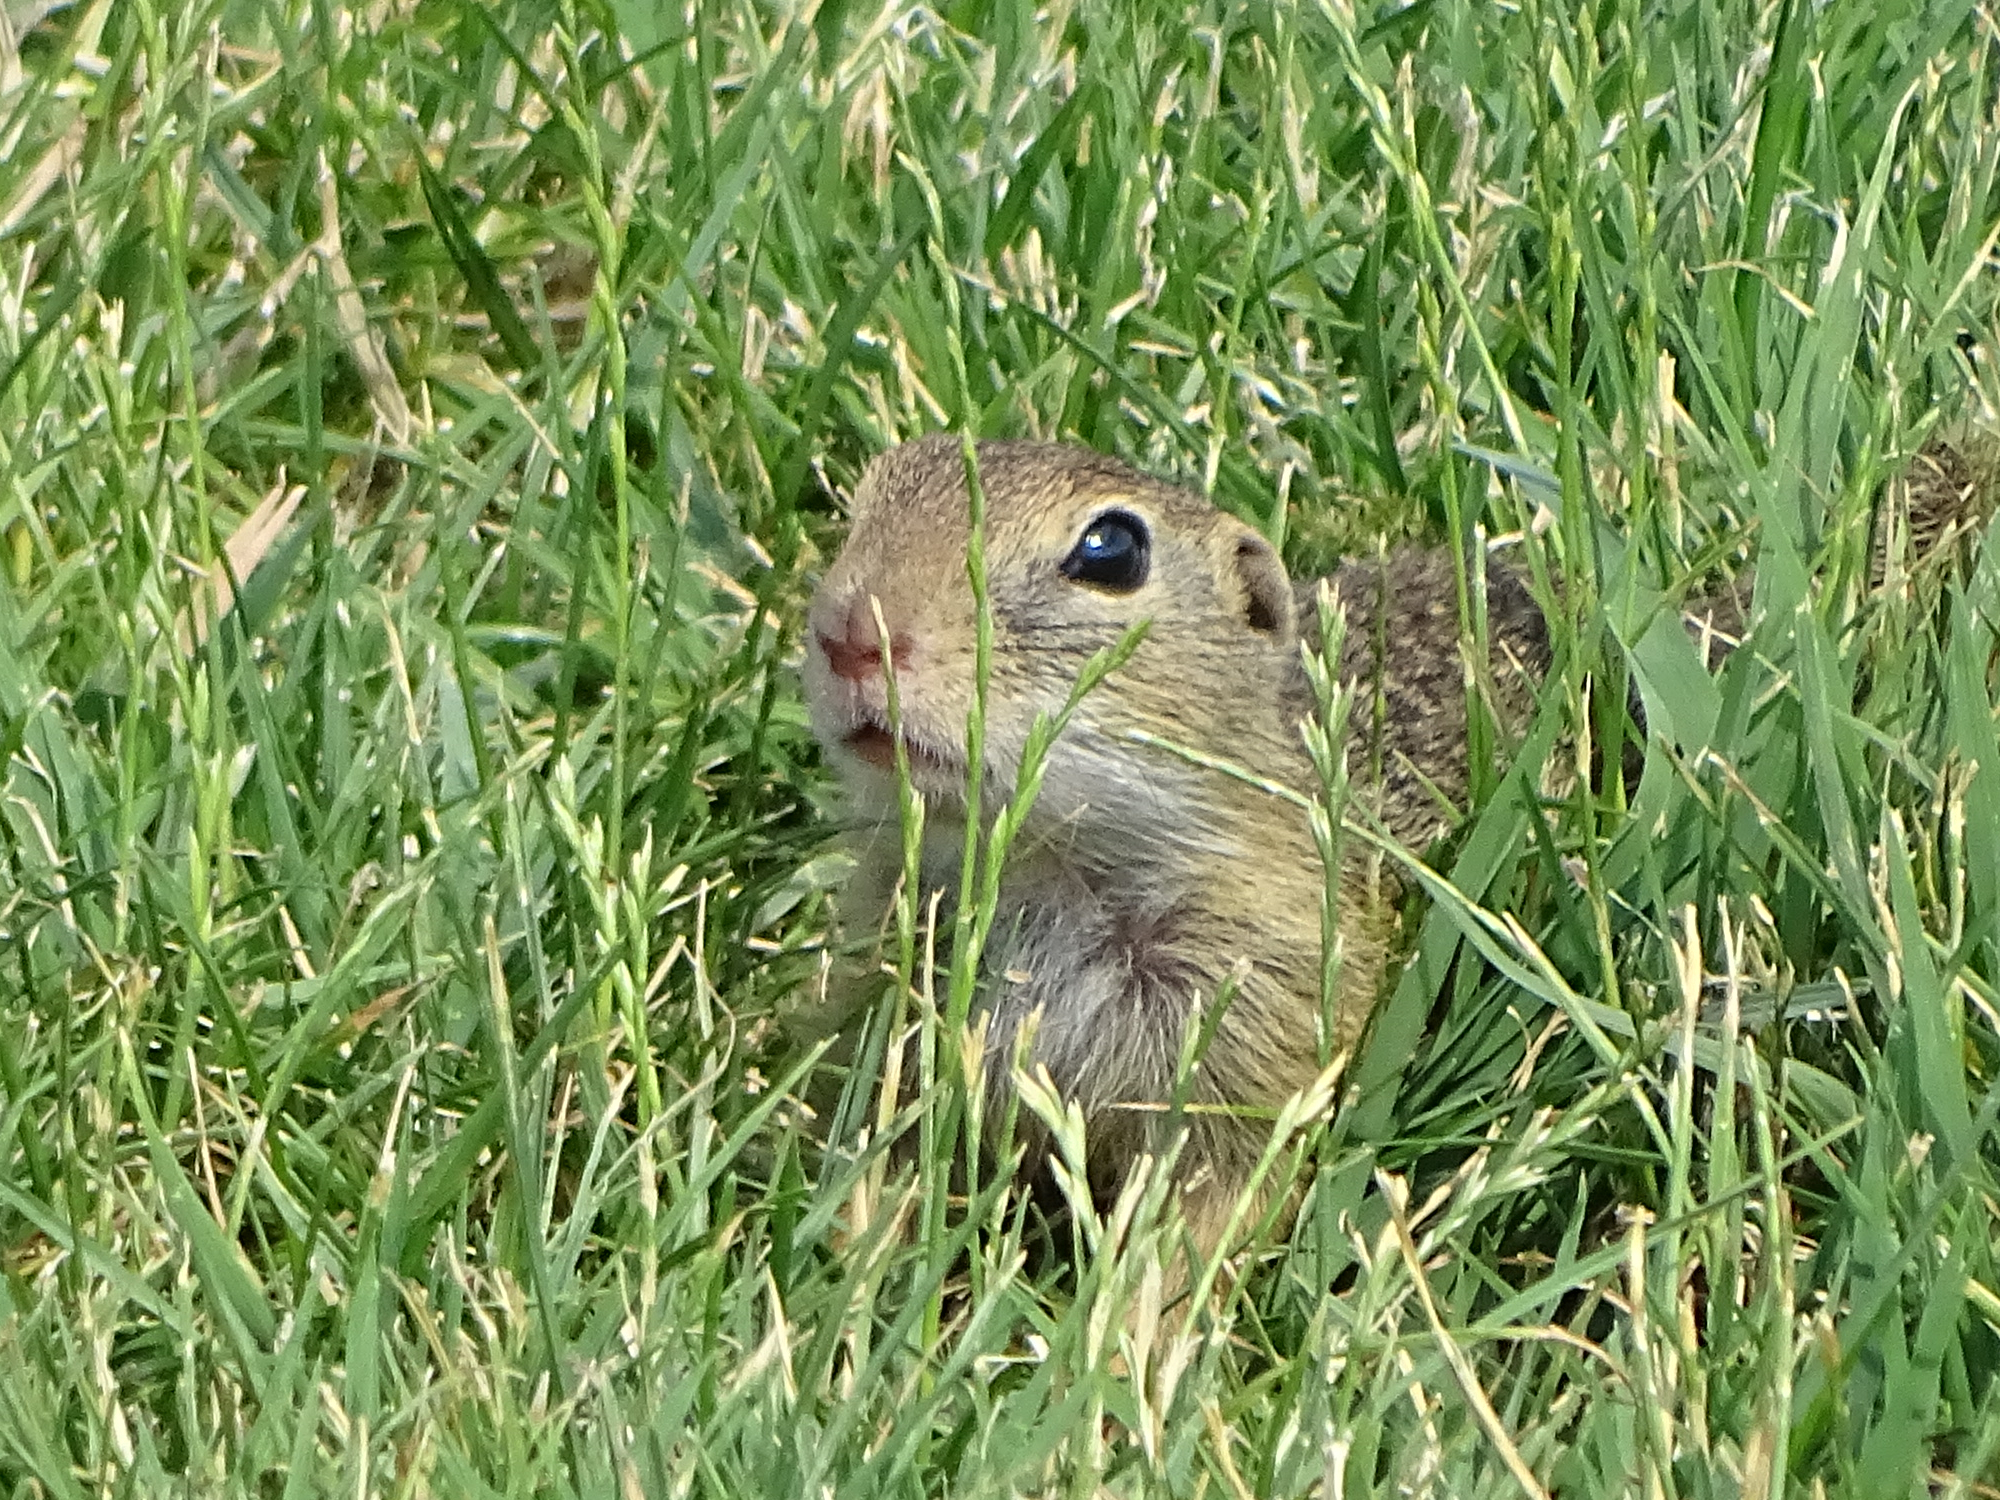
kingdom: Animalia
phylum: Chordata
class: Mammalia
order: Rodentia
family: Sciuridae
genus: Spermophilus
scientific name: Spermophilus citellus
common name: European ground squirrel
